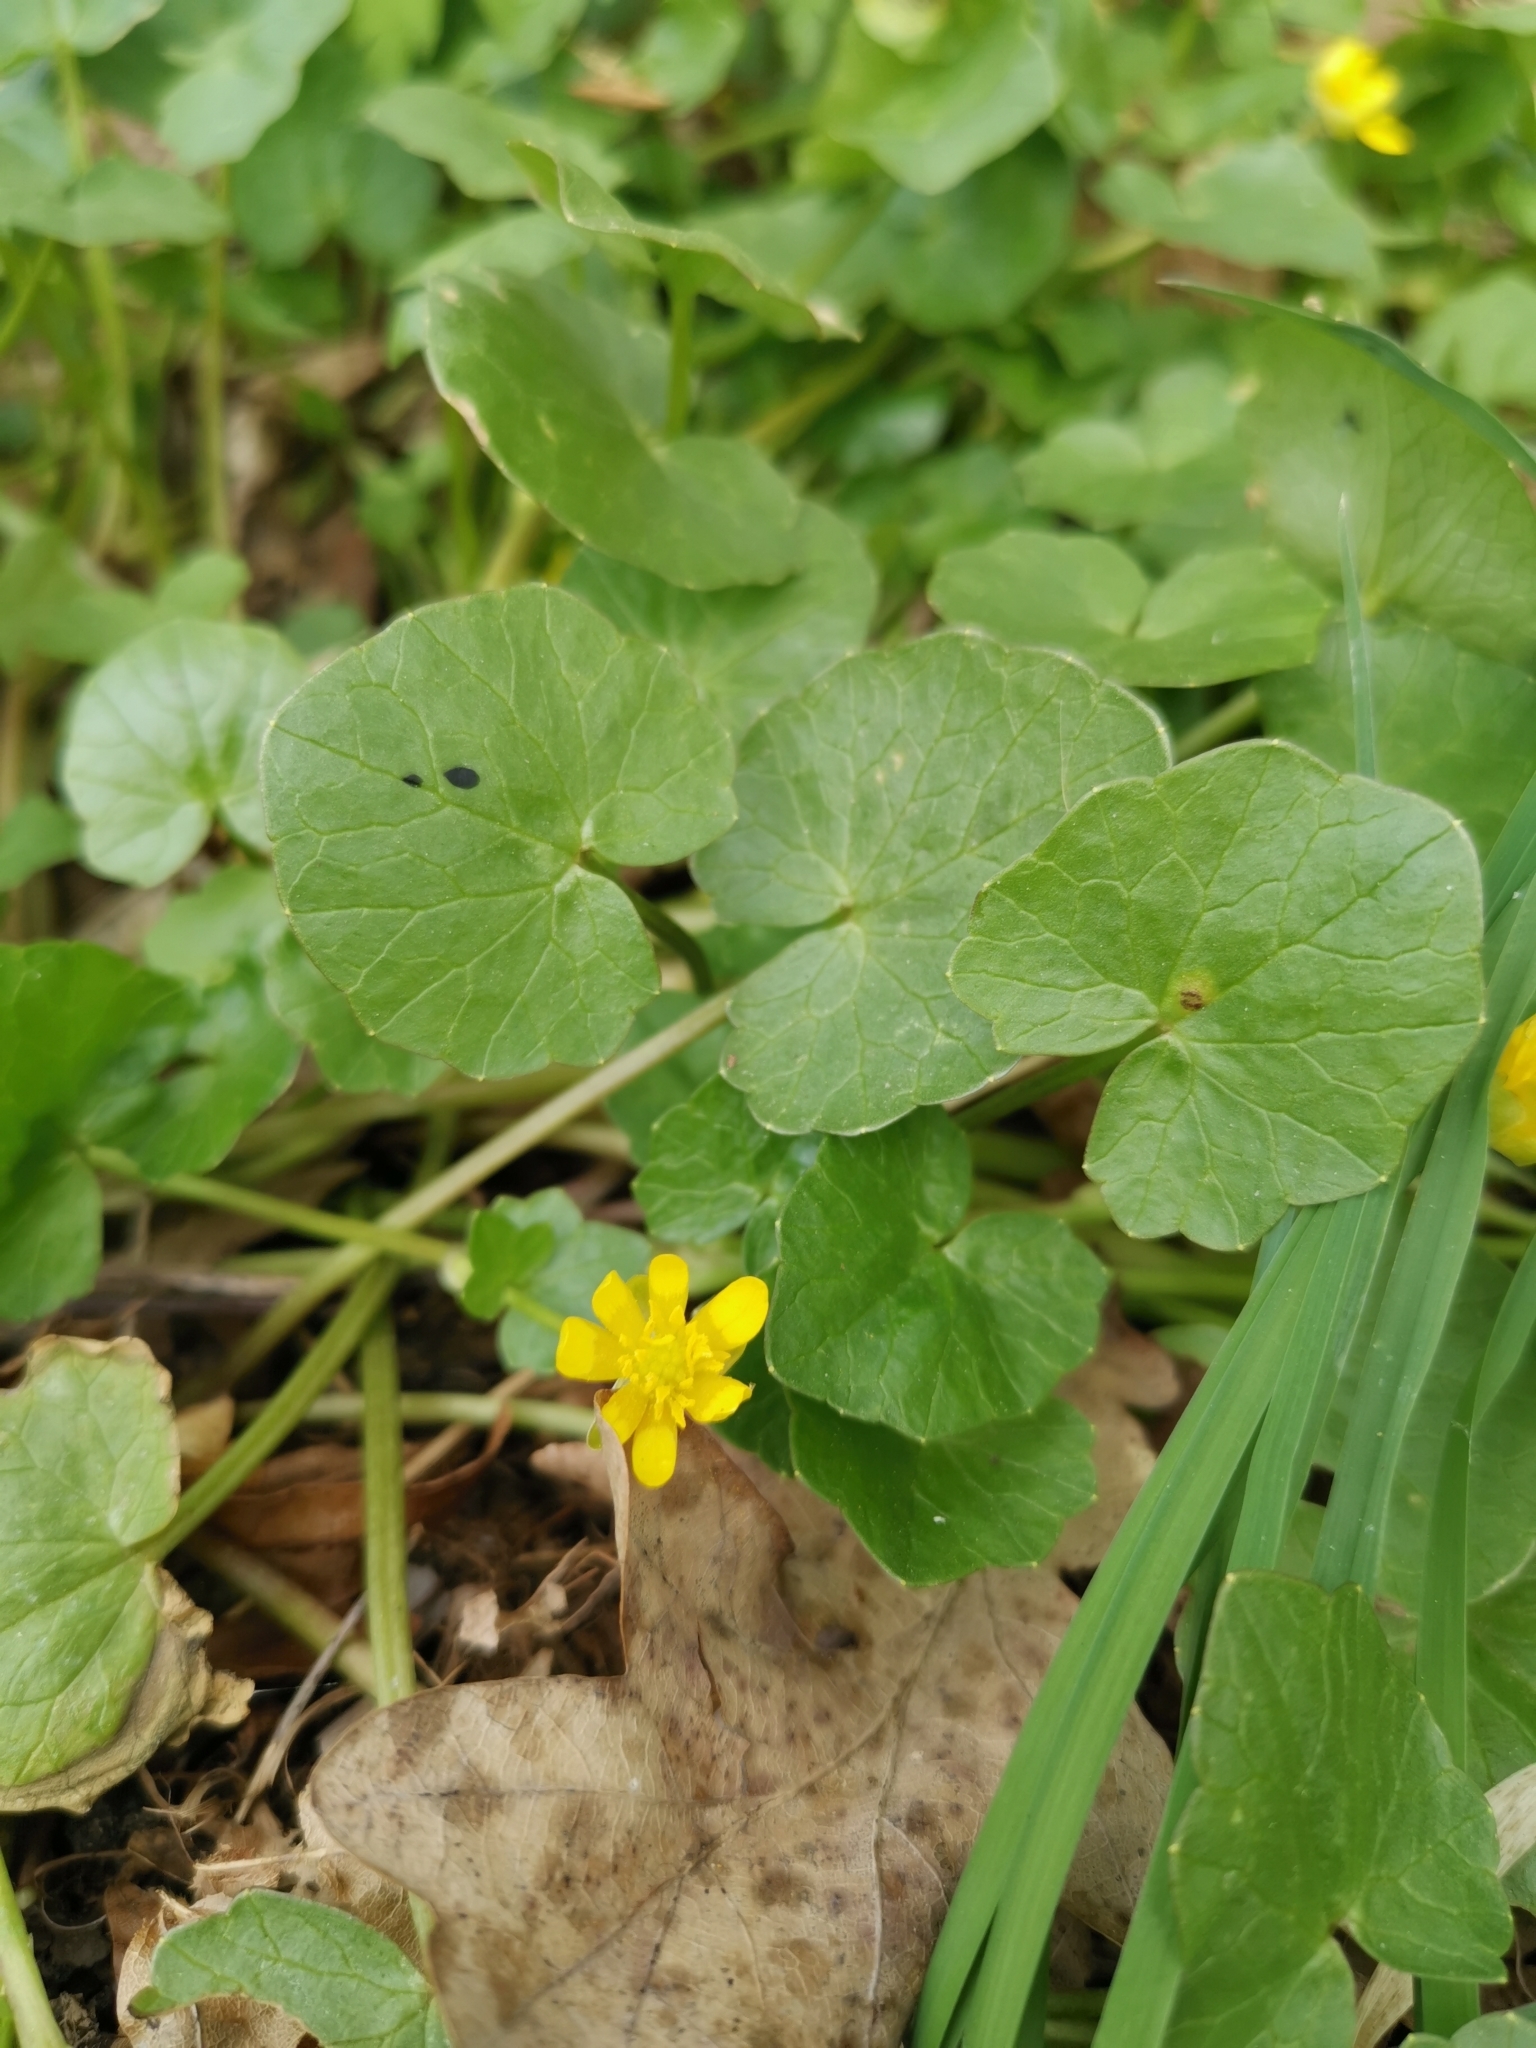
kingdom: Plantae
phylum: Tracheophyta
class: Magnoliopsida
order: Ranunculales
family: Ranunculaceae
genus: Ficaria
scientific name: Ficaria verna
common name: Lesser celandine
